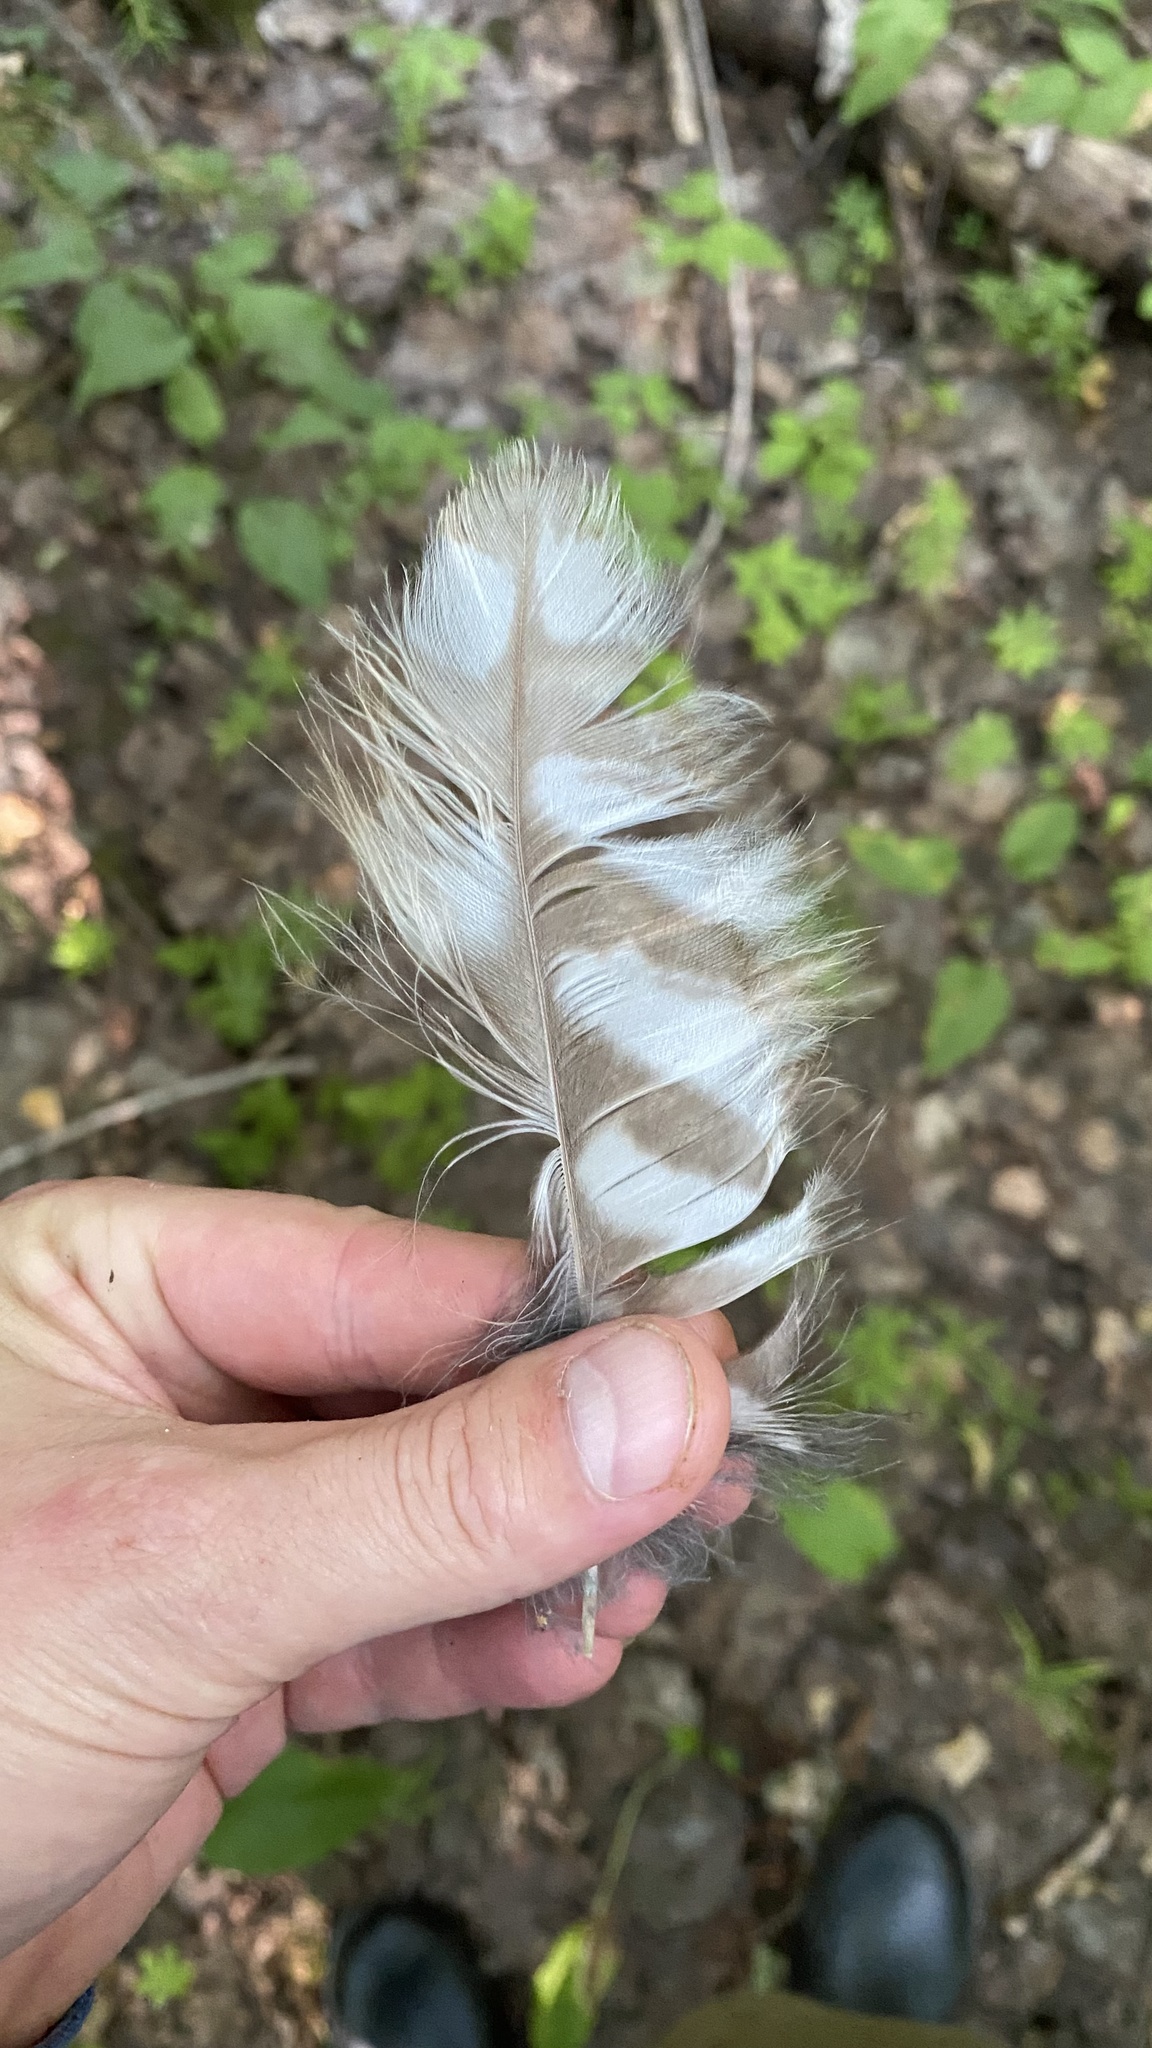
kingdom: Animalia
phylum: Chordata
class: Aves
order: Strigiformes
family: Strigidae
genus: Strix
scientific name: Strix uralensis
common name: Ural owl
